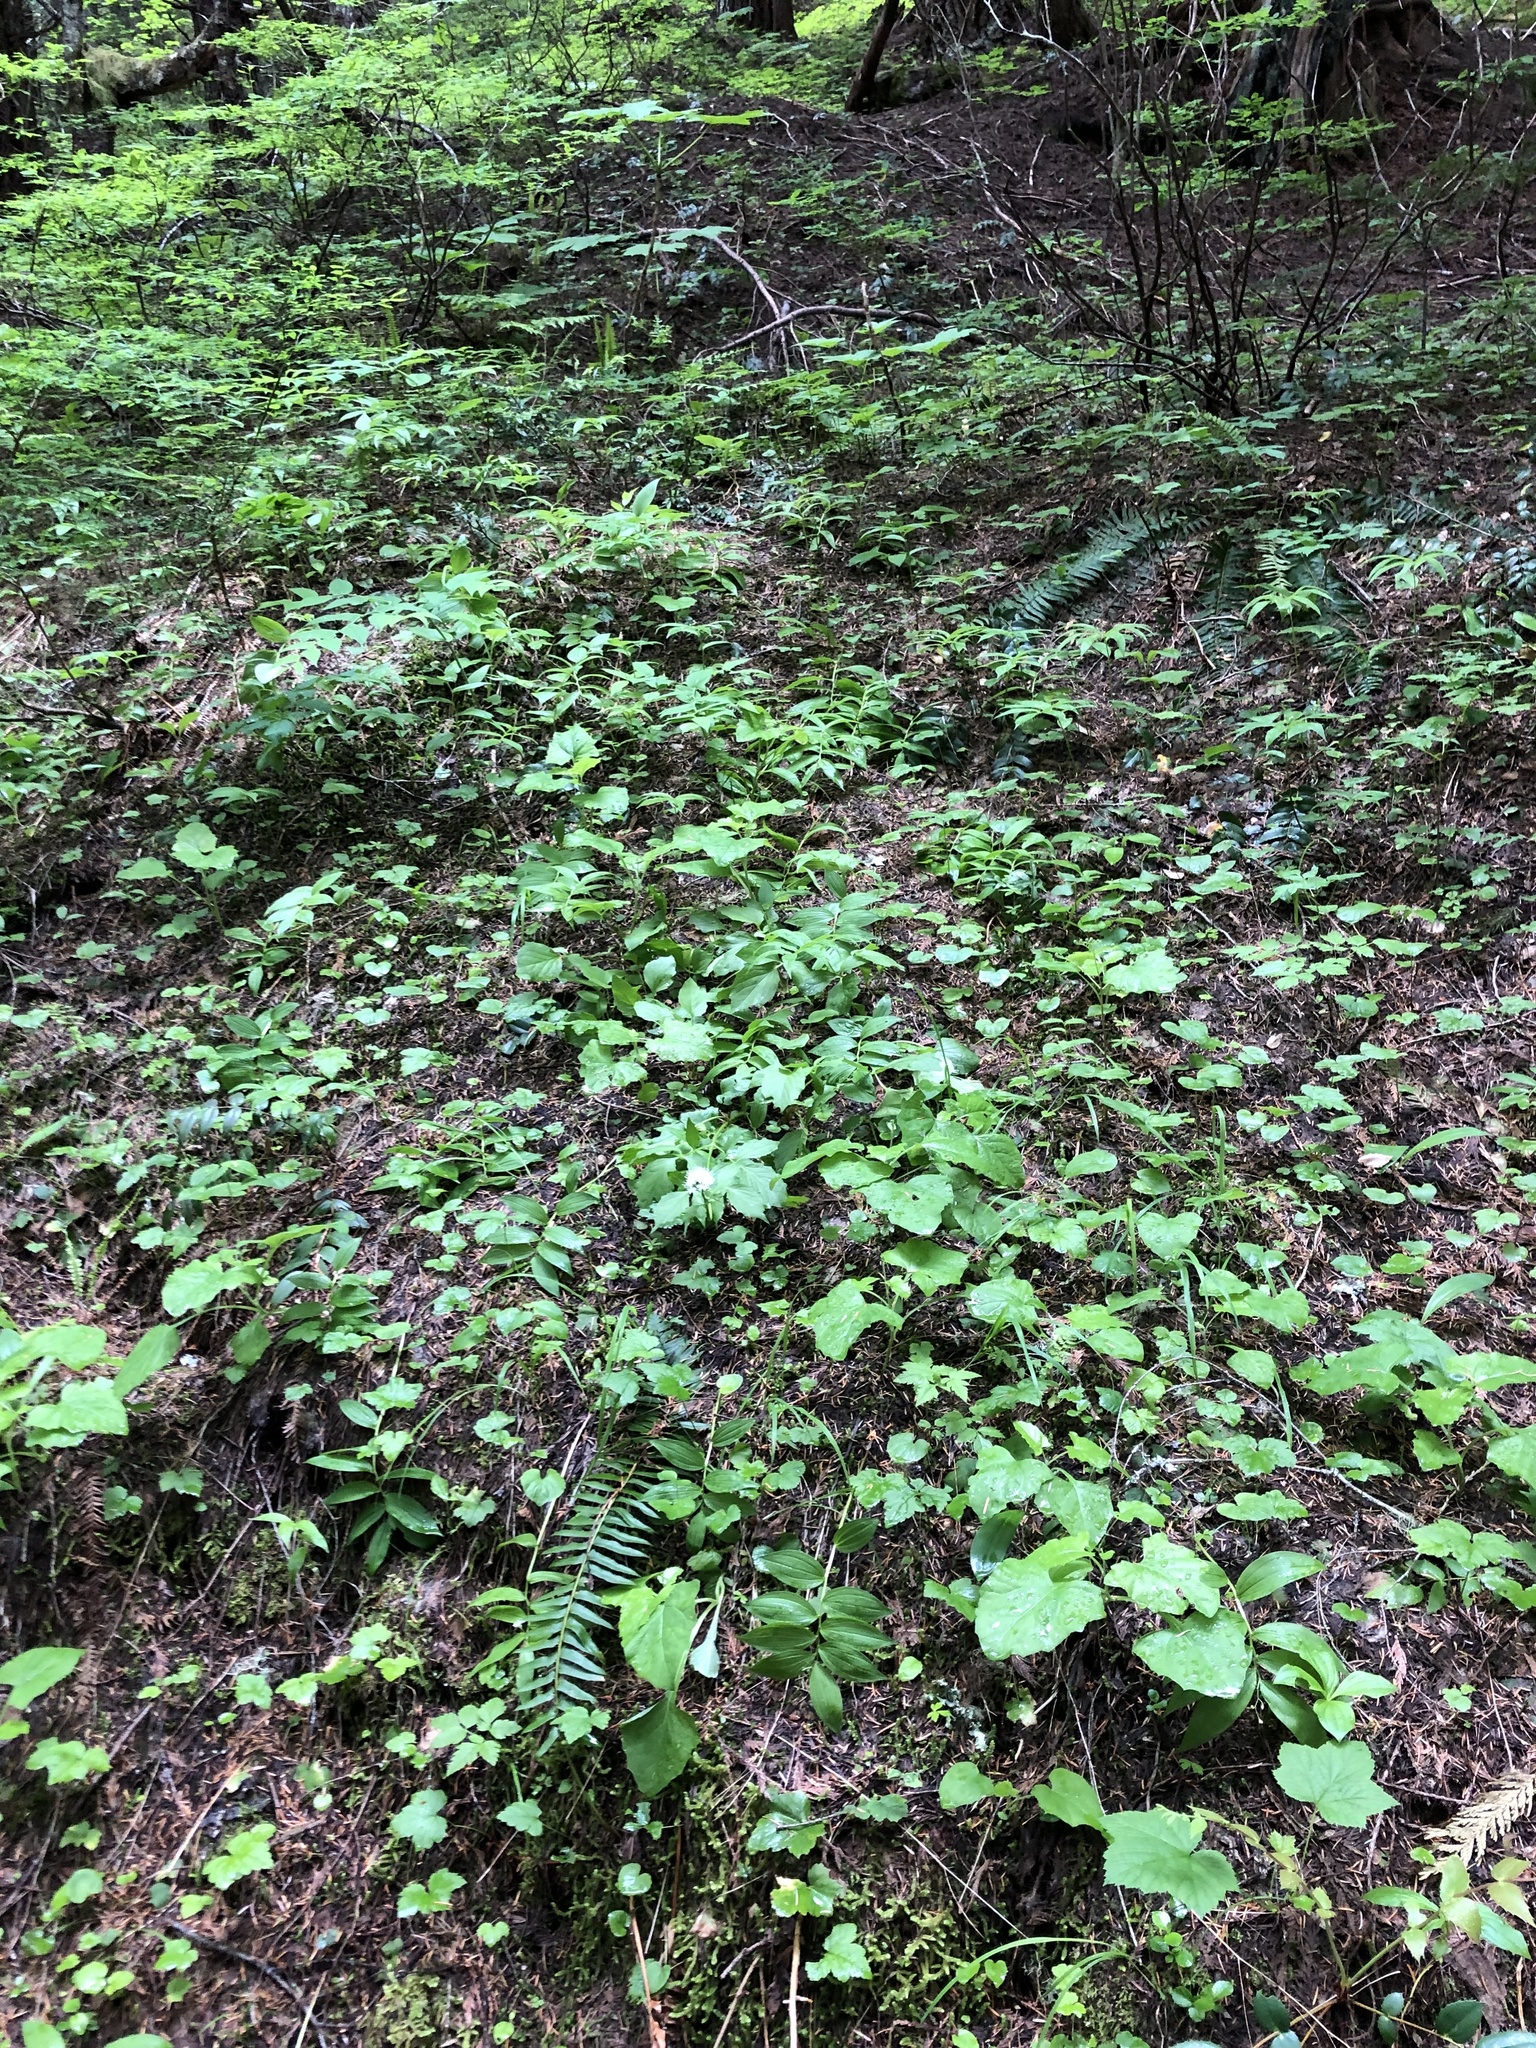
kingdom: Plantae
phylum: Tracheophyta
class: Magnoliopsida
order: Dipsacales
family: Caprifoliaceae
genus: Valeriana
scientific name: Valeriana sitchensis
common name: Pacific valerian
